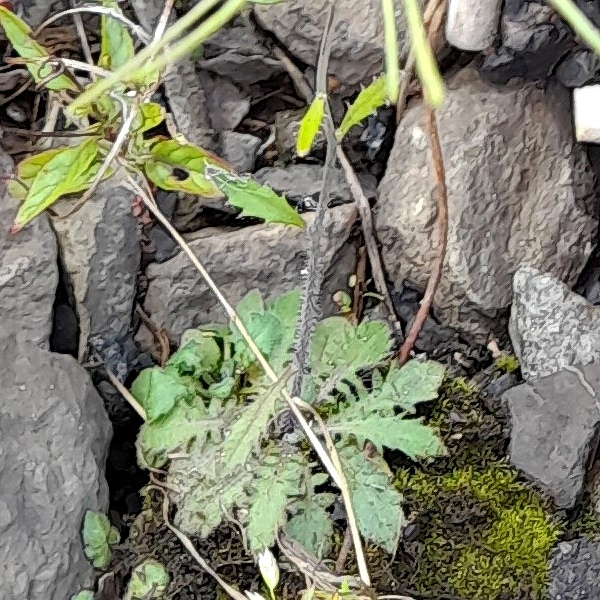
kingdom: Plantae
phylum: Tracheophyta
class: Magnoliopsida
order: Brassicales
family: Brassicaceae
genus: Arabidopsis
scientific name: Arabidopsis arenosa
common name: Sand rock-cress
